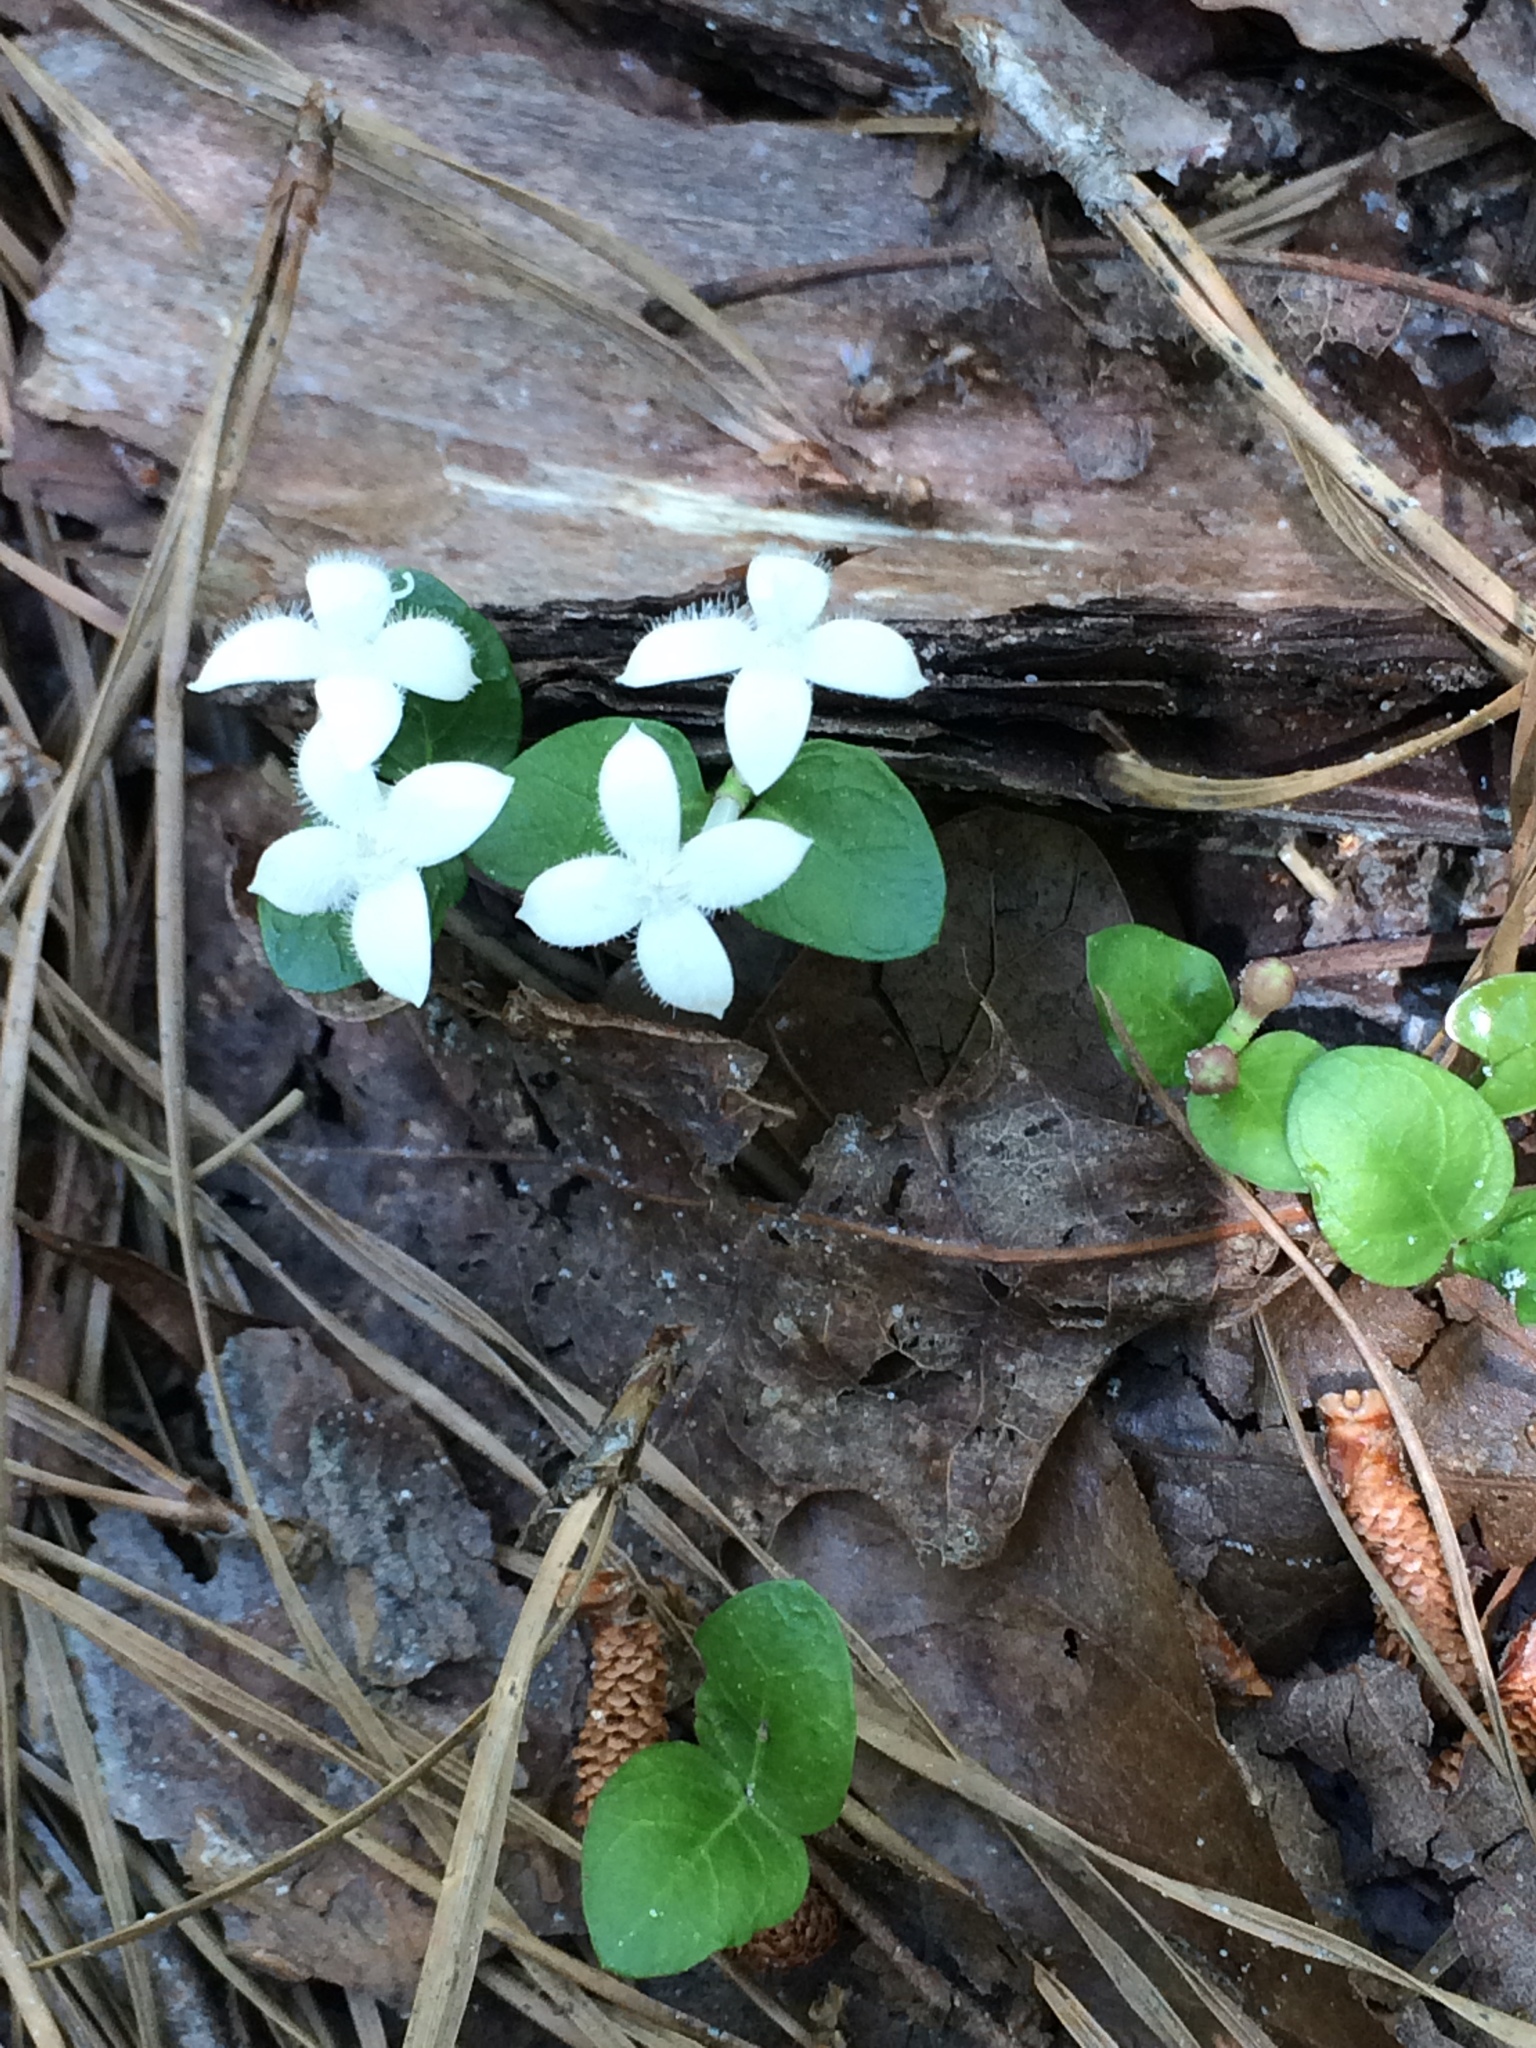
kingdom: Plantae
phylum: Tracheophyta
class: Magnoliopsida
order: Gentianales
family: Rubiaceae
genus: Mitchella
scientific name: Mitchella repens
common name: Partridge-berry
